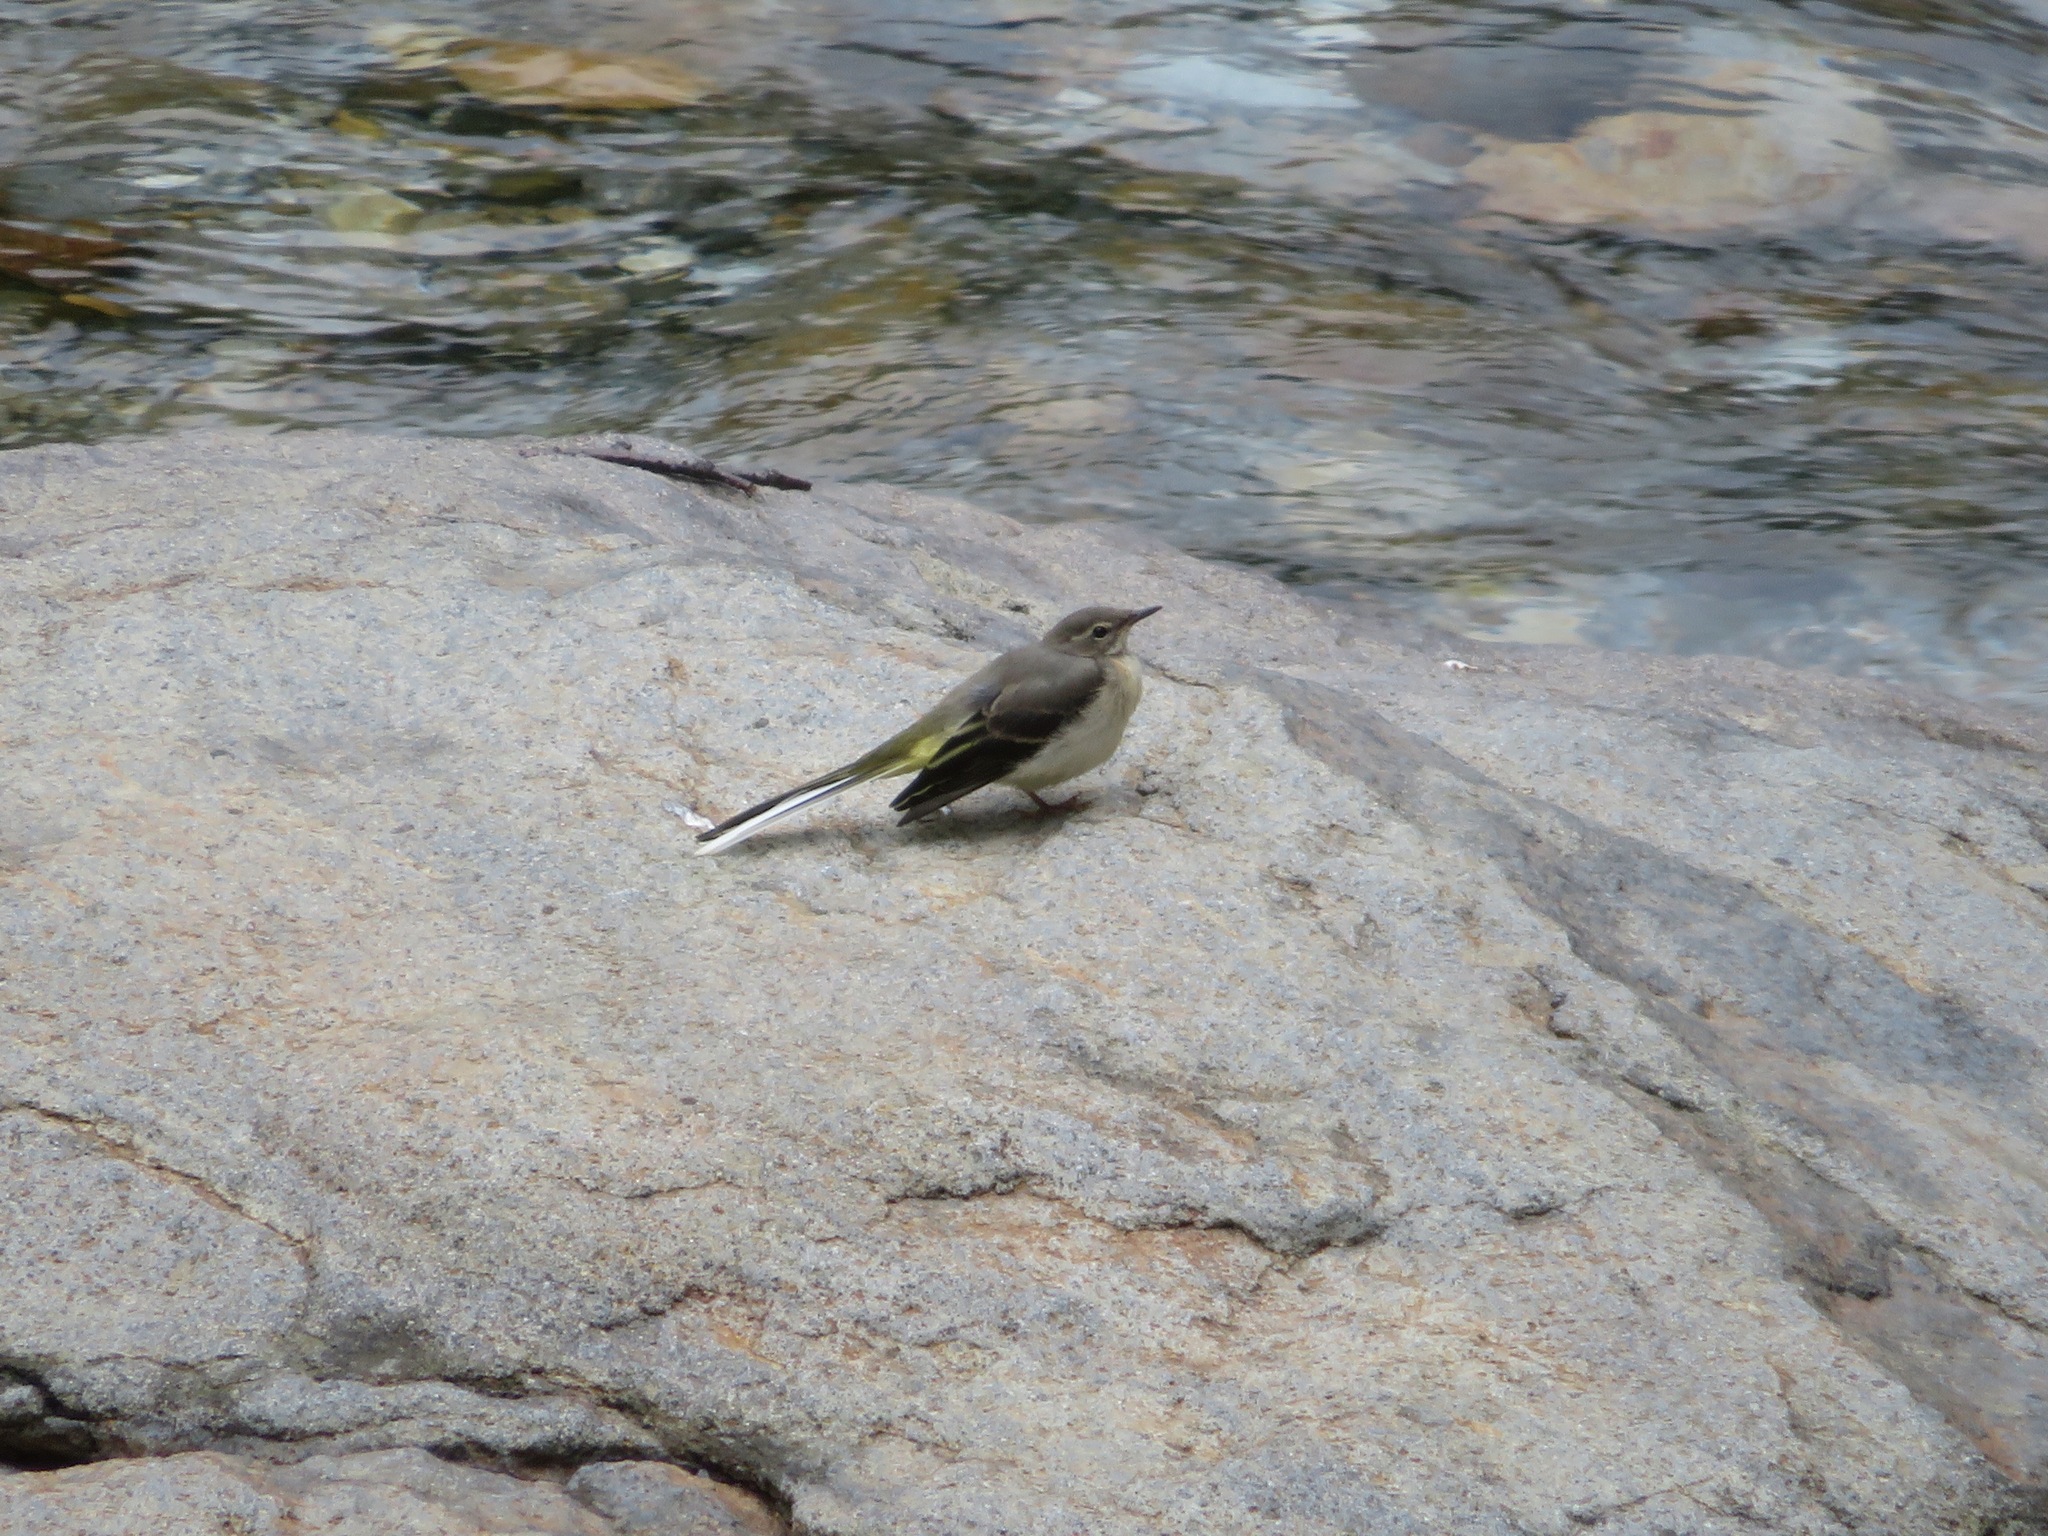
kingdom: Animalia
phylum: Chordata
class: Aves
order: Passeriformes
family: Motacillidae
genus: Motacilla
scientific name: Motacilla cinerea
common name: Grey wagtail
